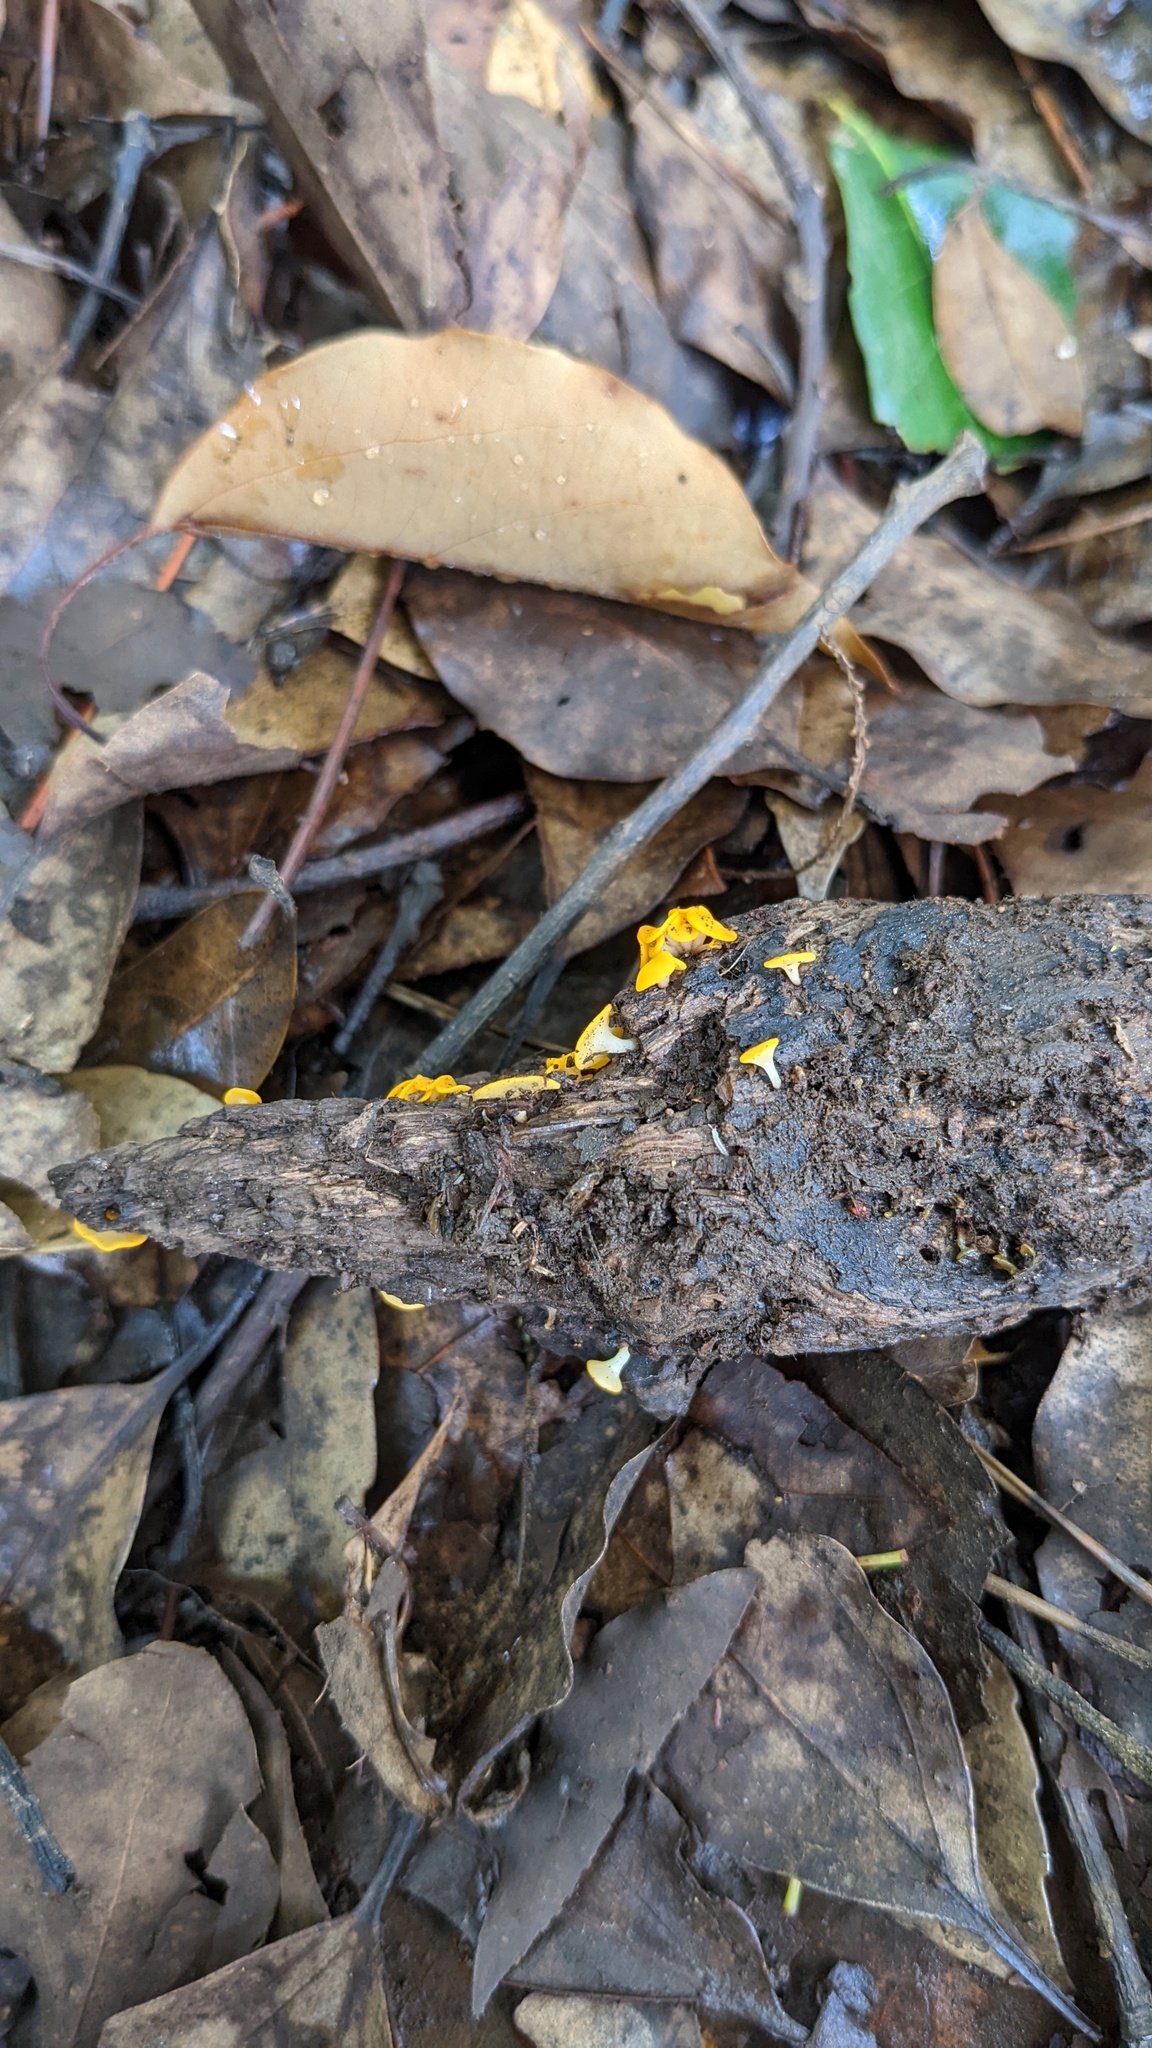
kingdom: Fungi
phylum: Ascomycota
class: Leotiomycetes
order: Helotiales
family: Helotiaceae
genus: Dicephalospora
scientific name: Dicephalospora rufocornea
